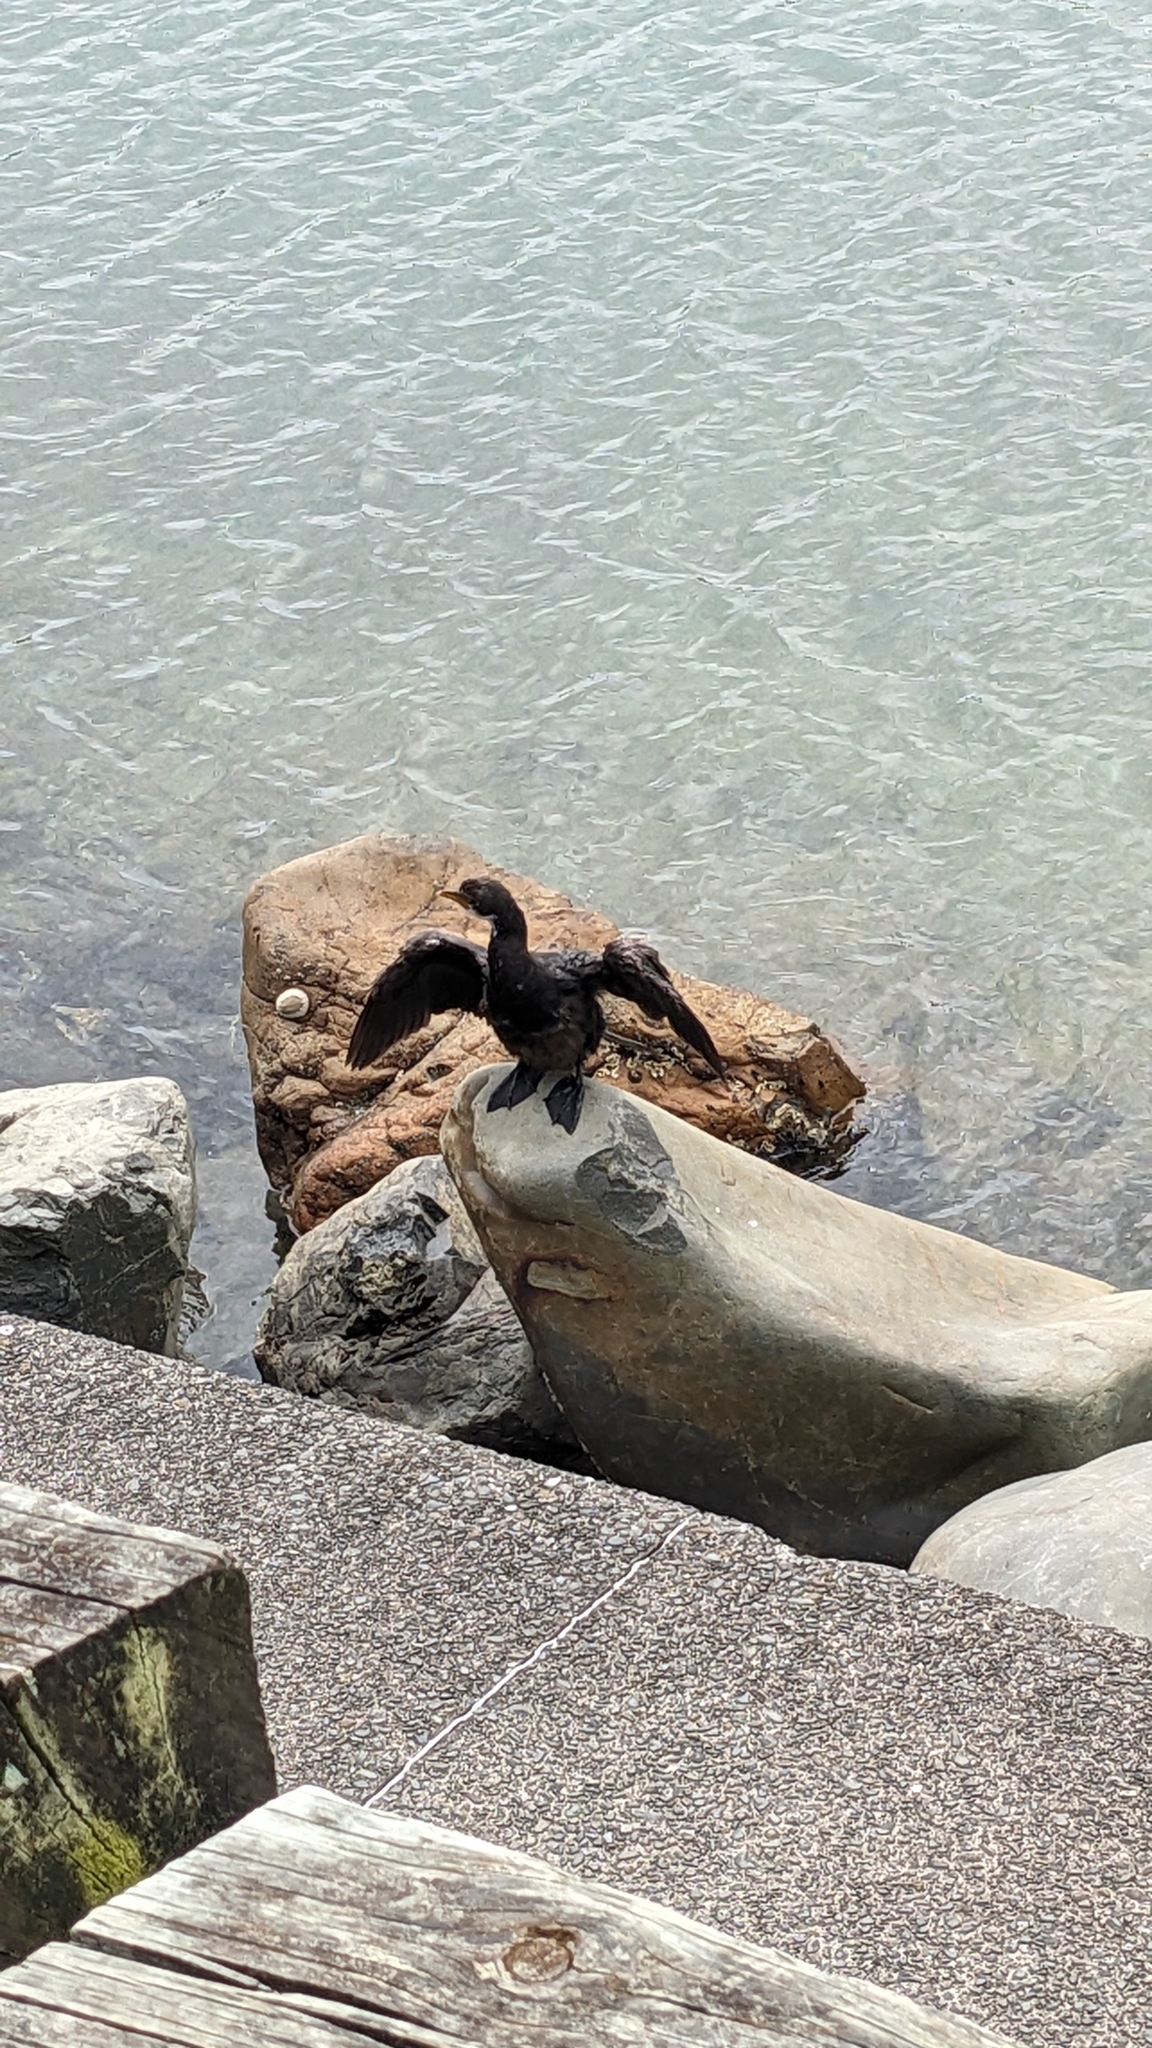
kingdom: Animalia
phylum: Chordata
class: Aves
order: Suliformes
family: Phalacrocoracidae
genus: Microcarbo
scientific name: Microcarbo melanoleucos
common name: Little pied cormorant
